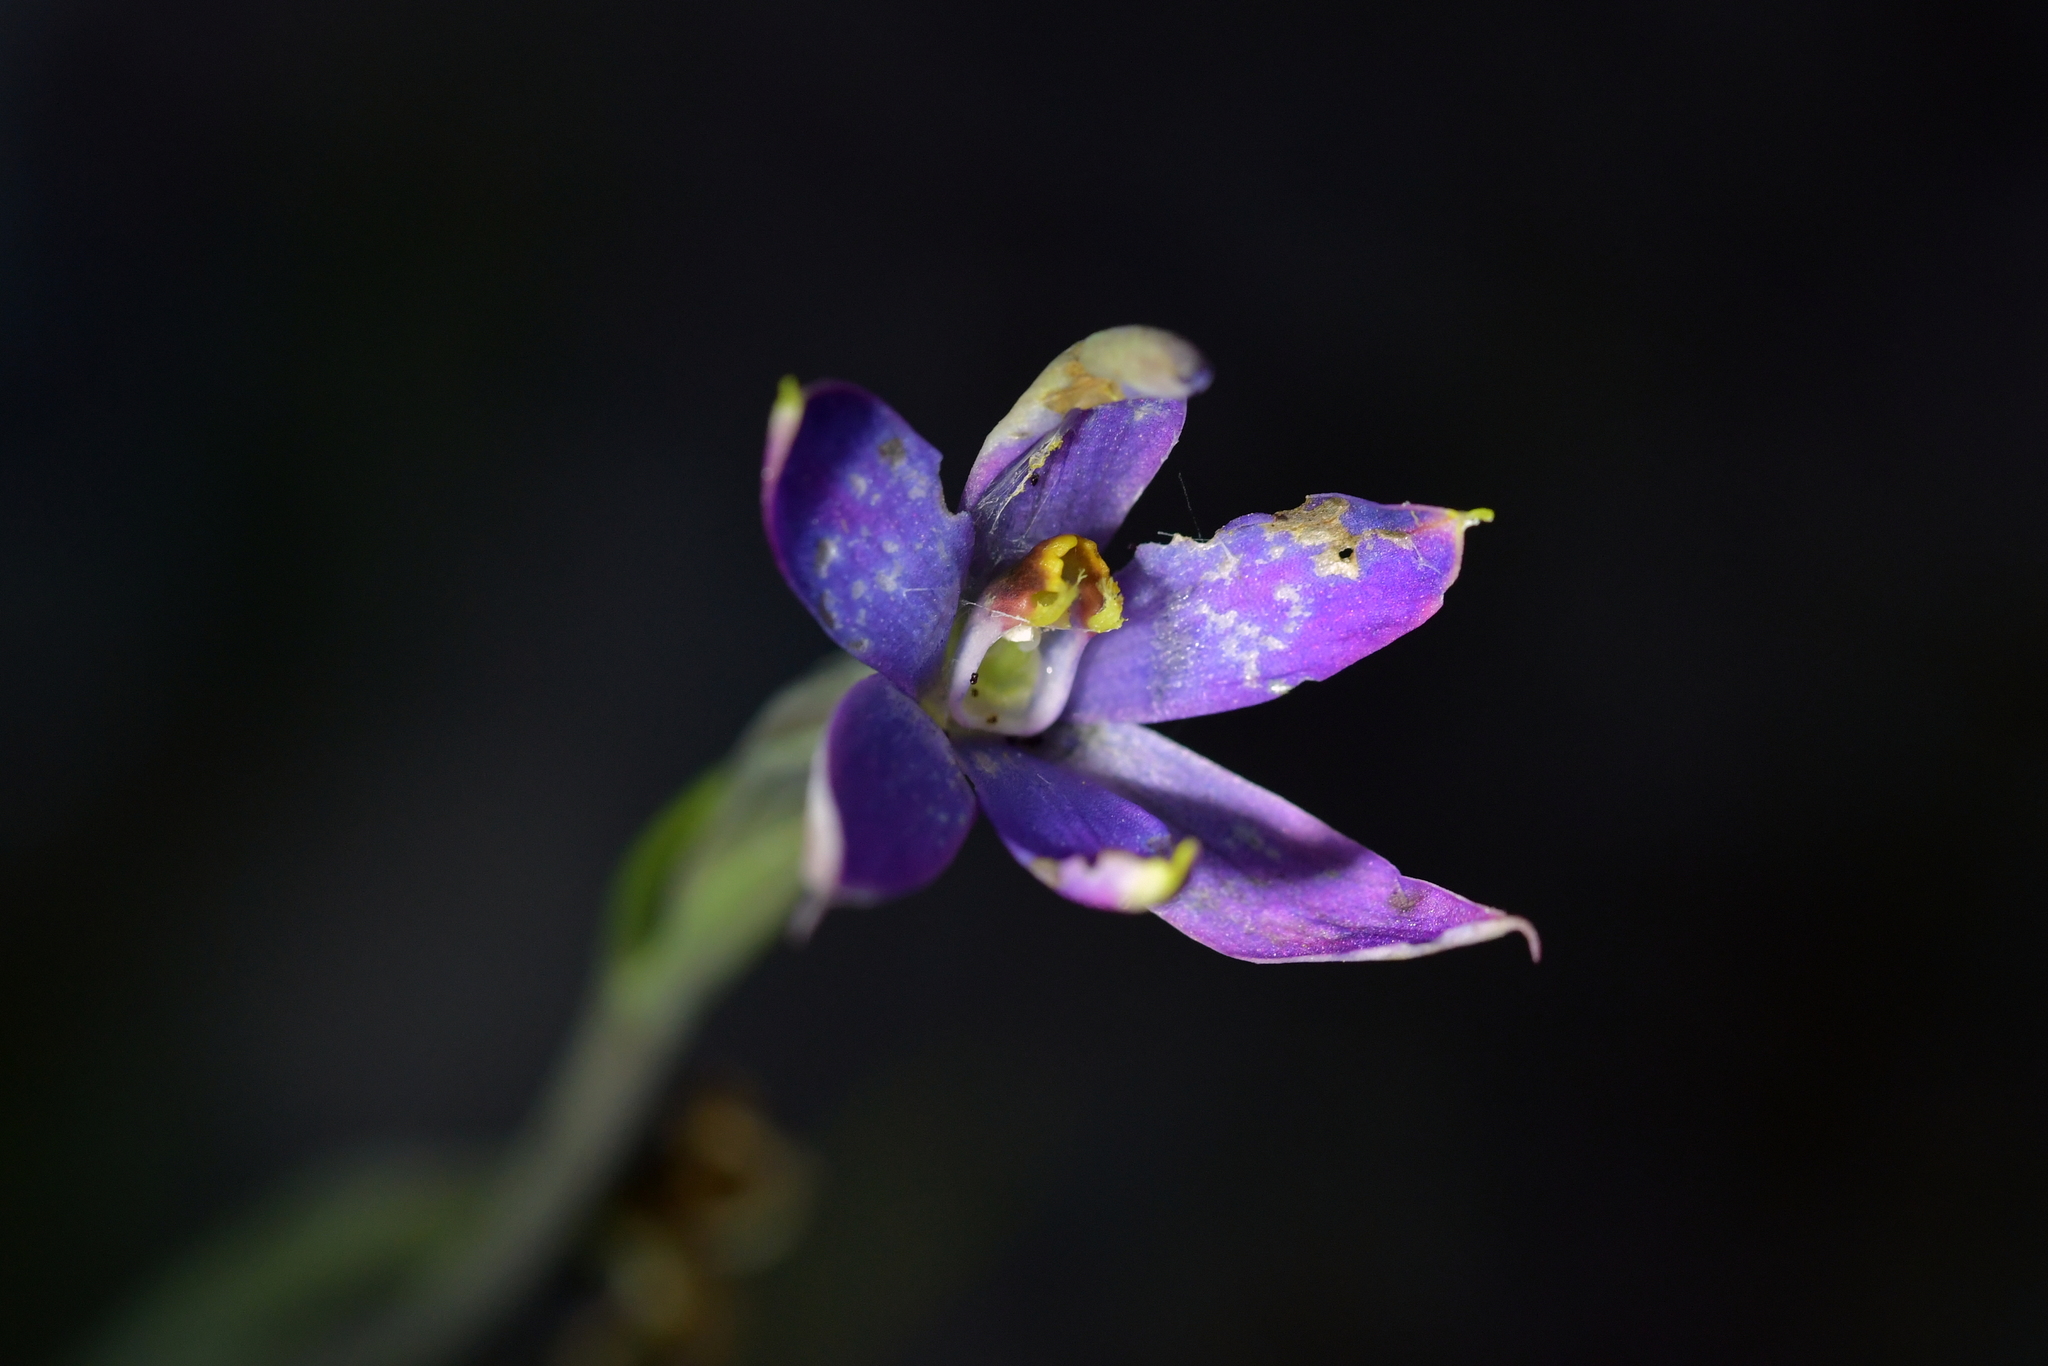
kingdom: Plantae
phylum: Tracheophyta
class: Liliopsida
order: Asparagales
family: Orchidaceae
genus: Thelymitra
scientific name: Thelymitra hatchii
